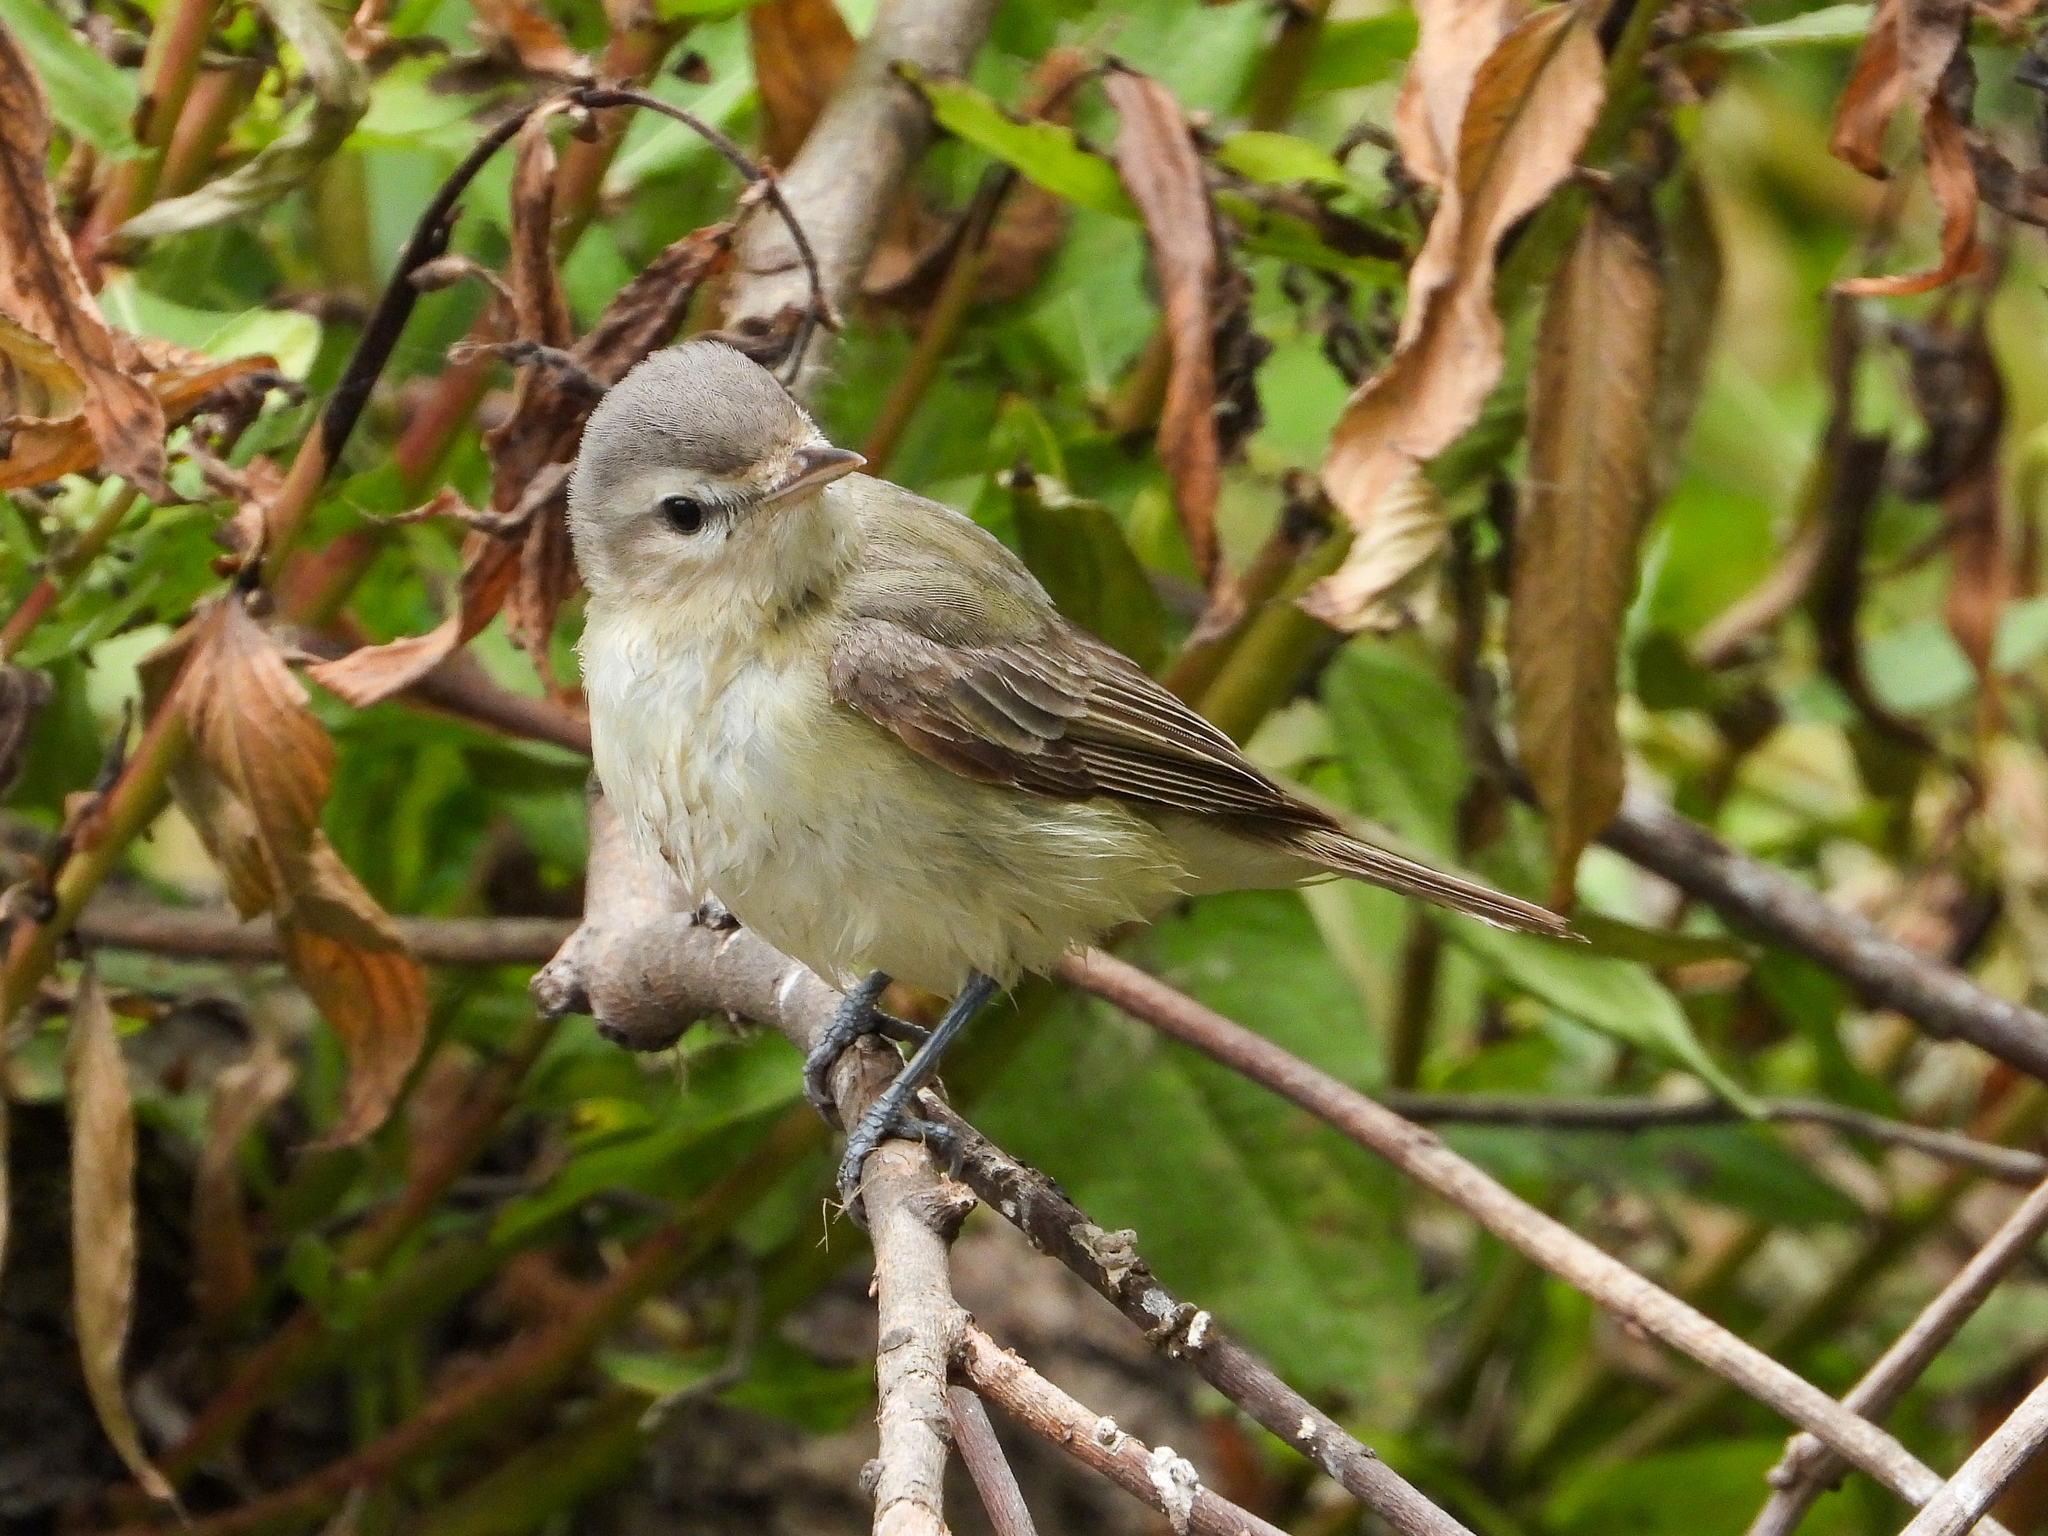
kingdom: Animalia
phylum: Chordata
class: Aves
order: Passeriformes
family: Vireonidae
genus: Vireo
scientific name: Vireo gilvus
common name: Warbling vireo
